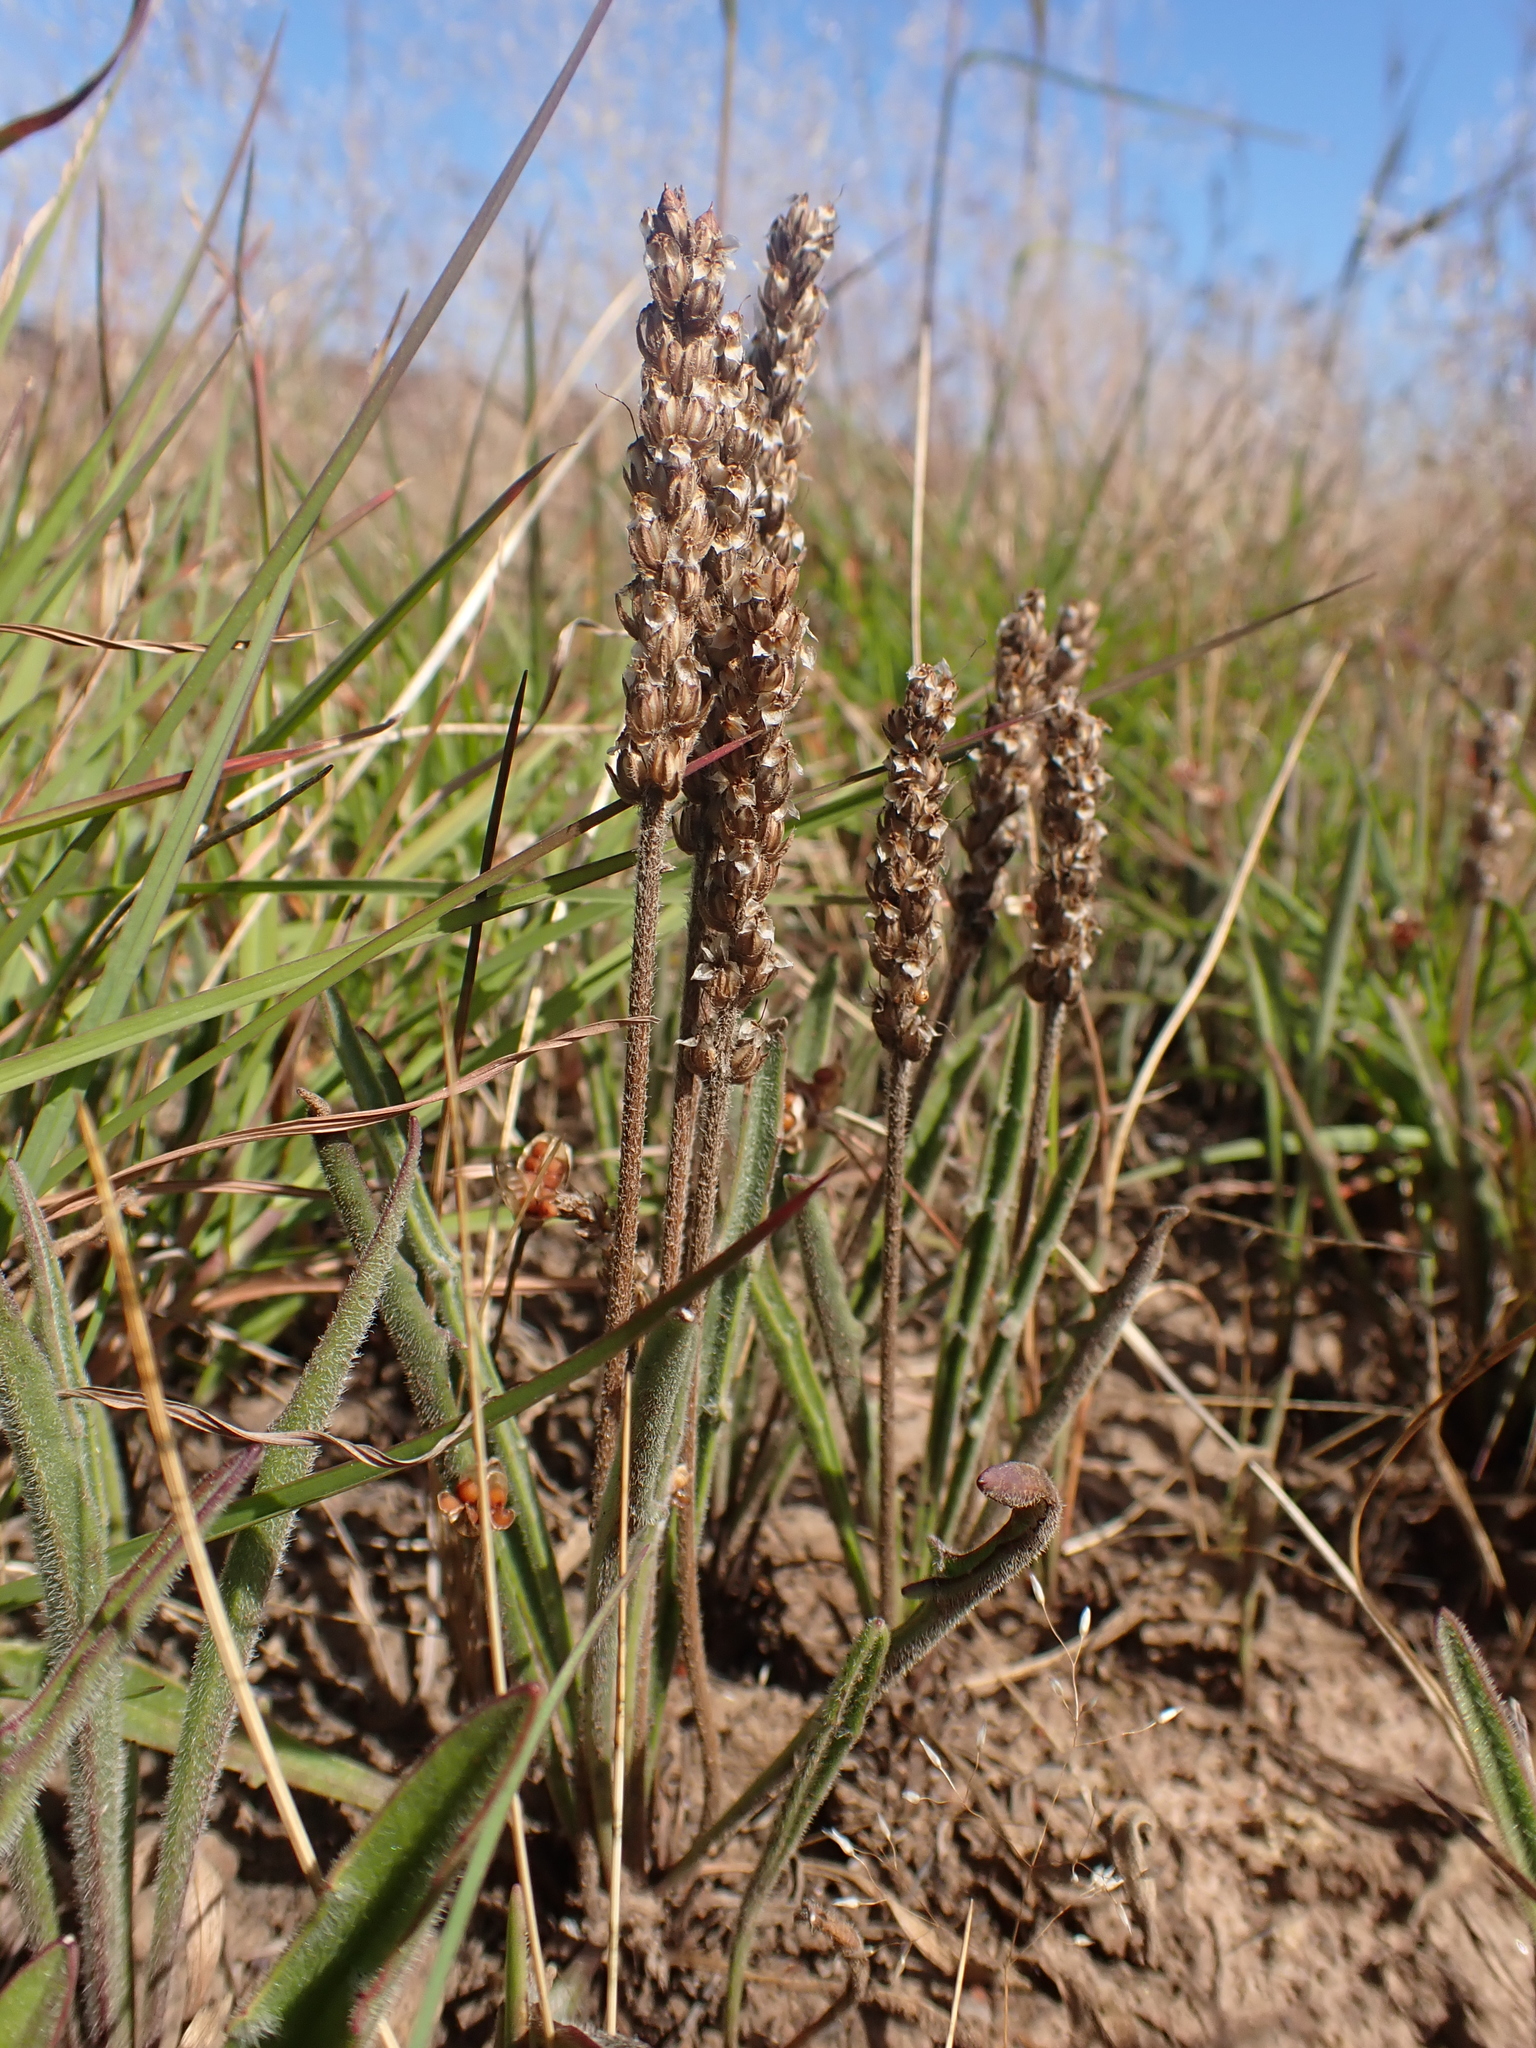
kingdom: Plantae
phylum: Tracheophyta
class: Magnoliopsida
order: Lamiales
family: Plantaginaceae
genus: Plantago
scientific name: Plantago gaudichaudii
